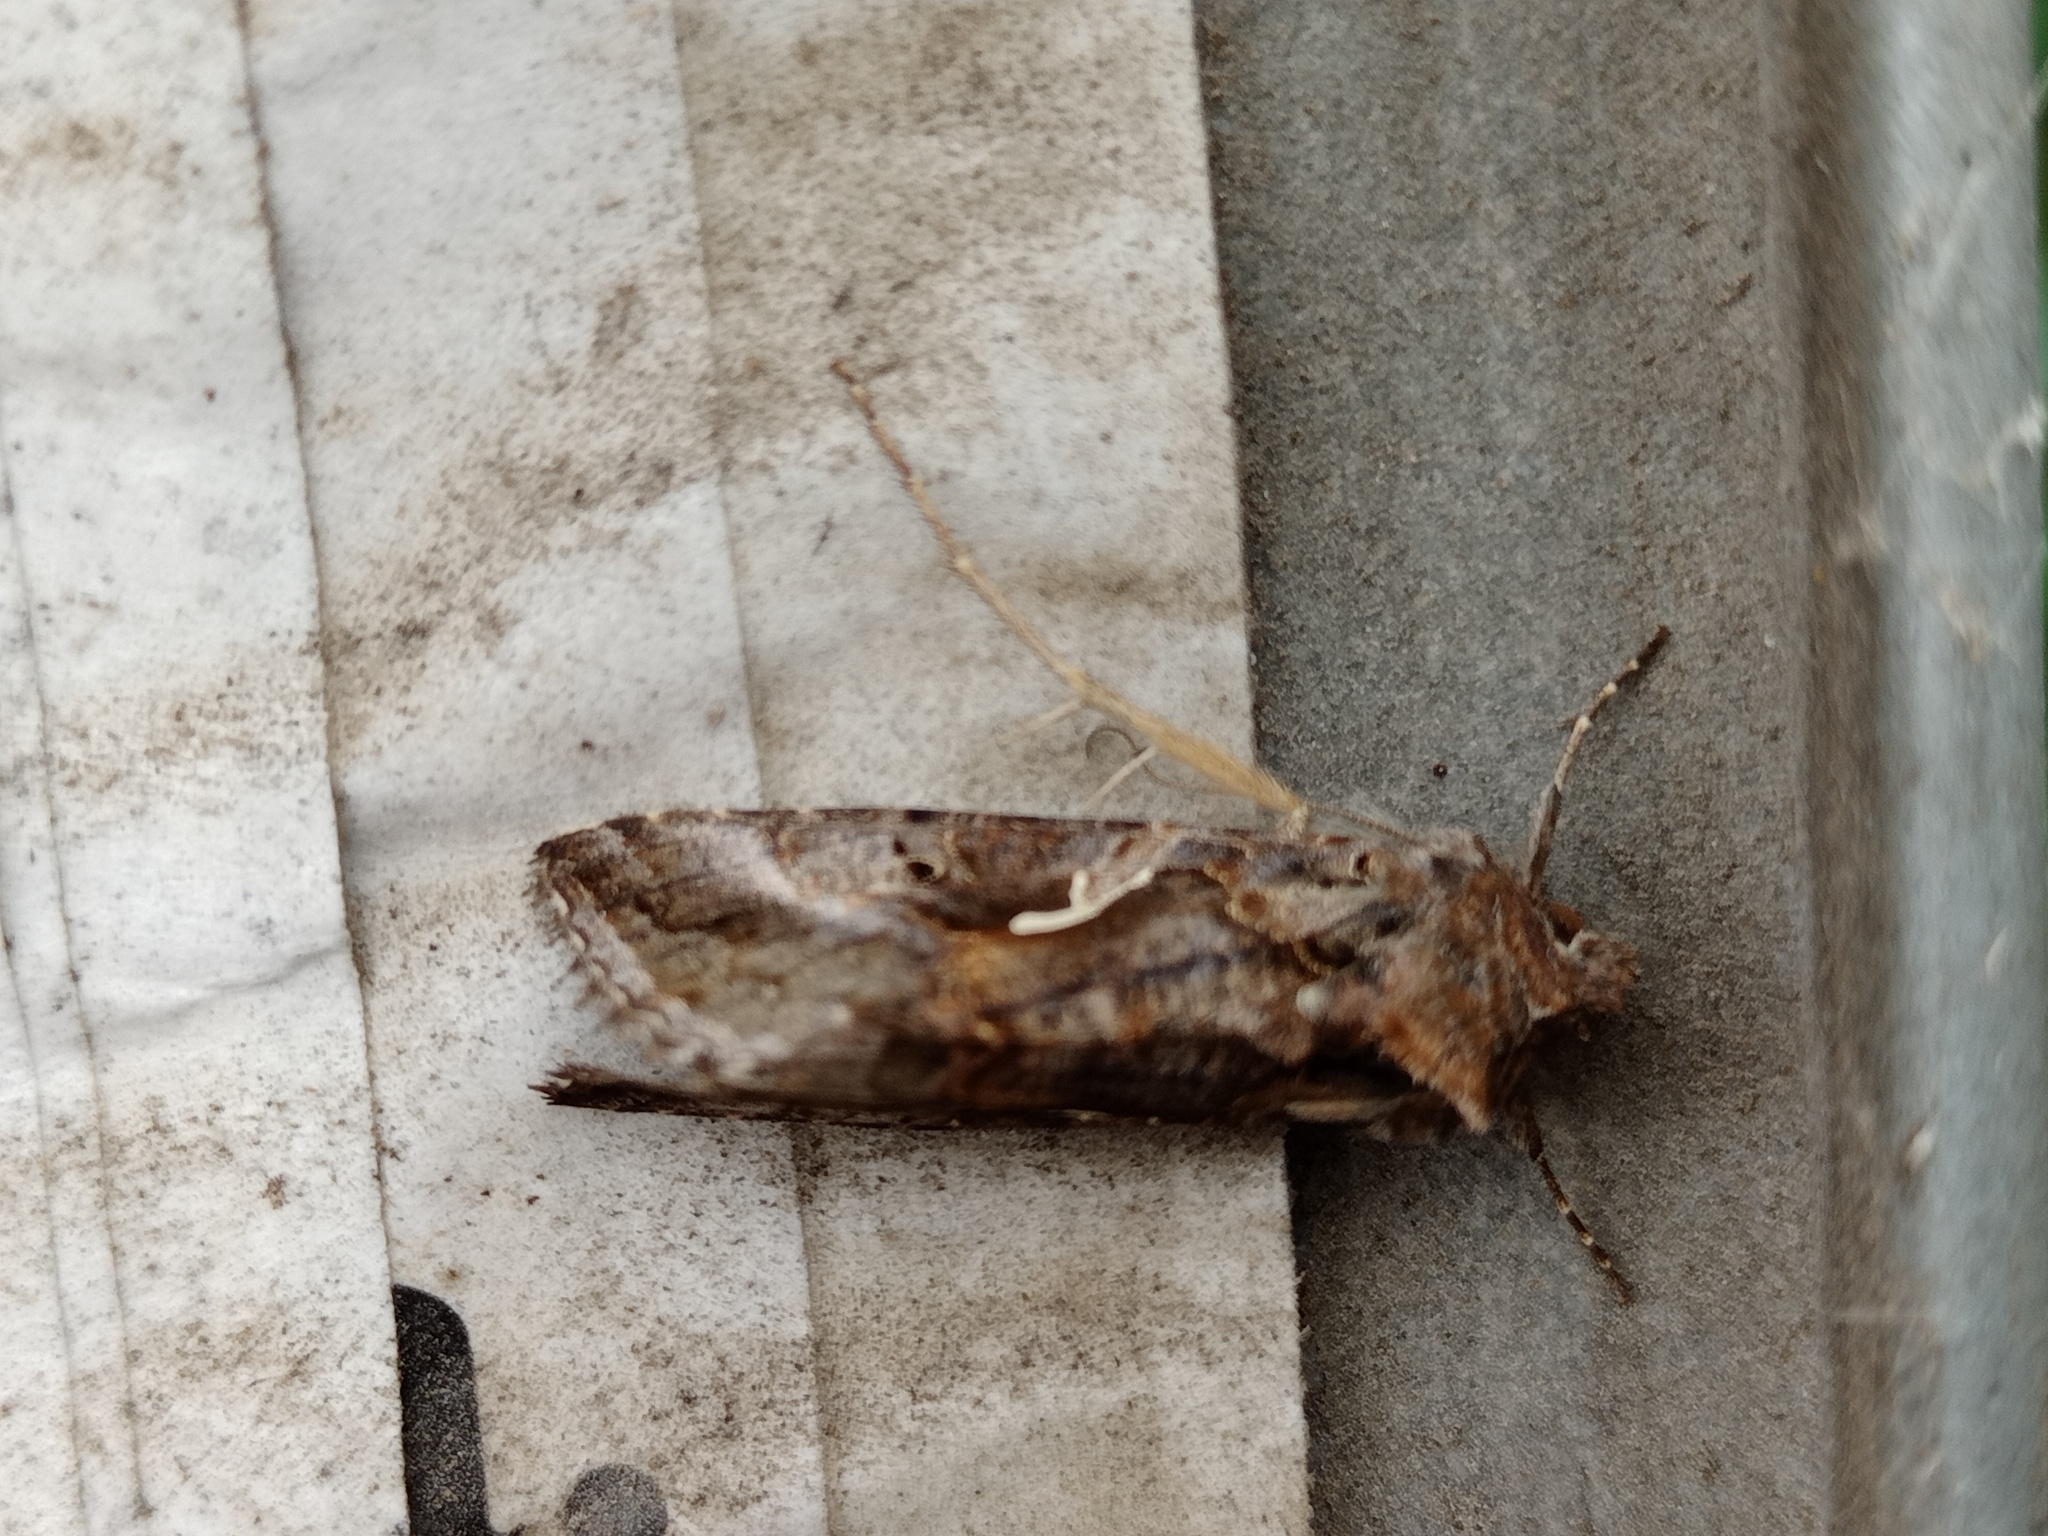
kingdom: Animalia
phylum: Arthropoda
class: Insecta
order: Lepidoptera
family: Noctuidae
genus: Autographa
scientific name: Autographa gamma
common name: Silver y
